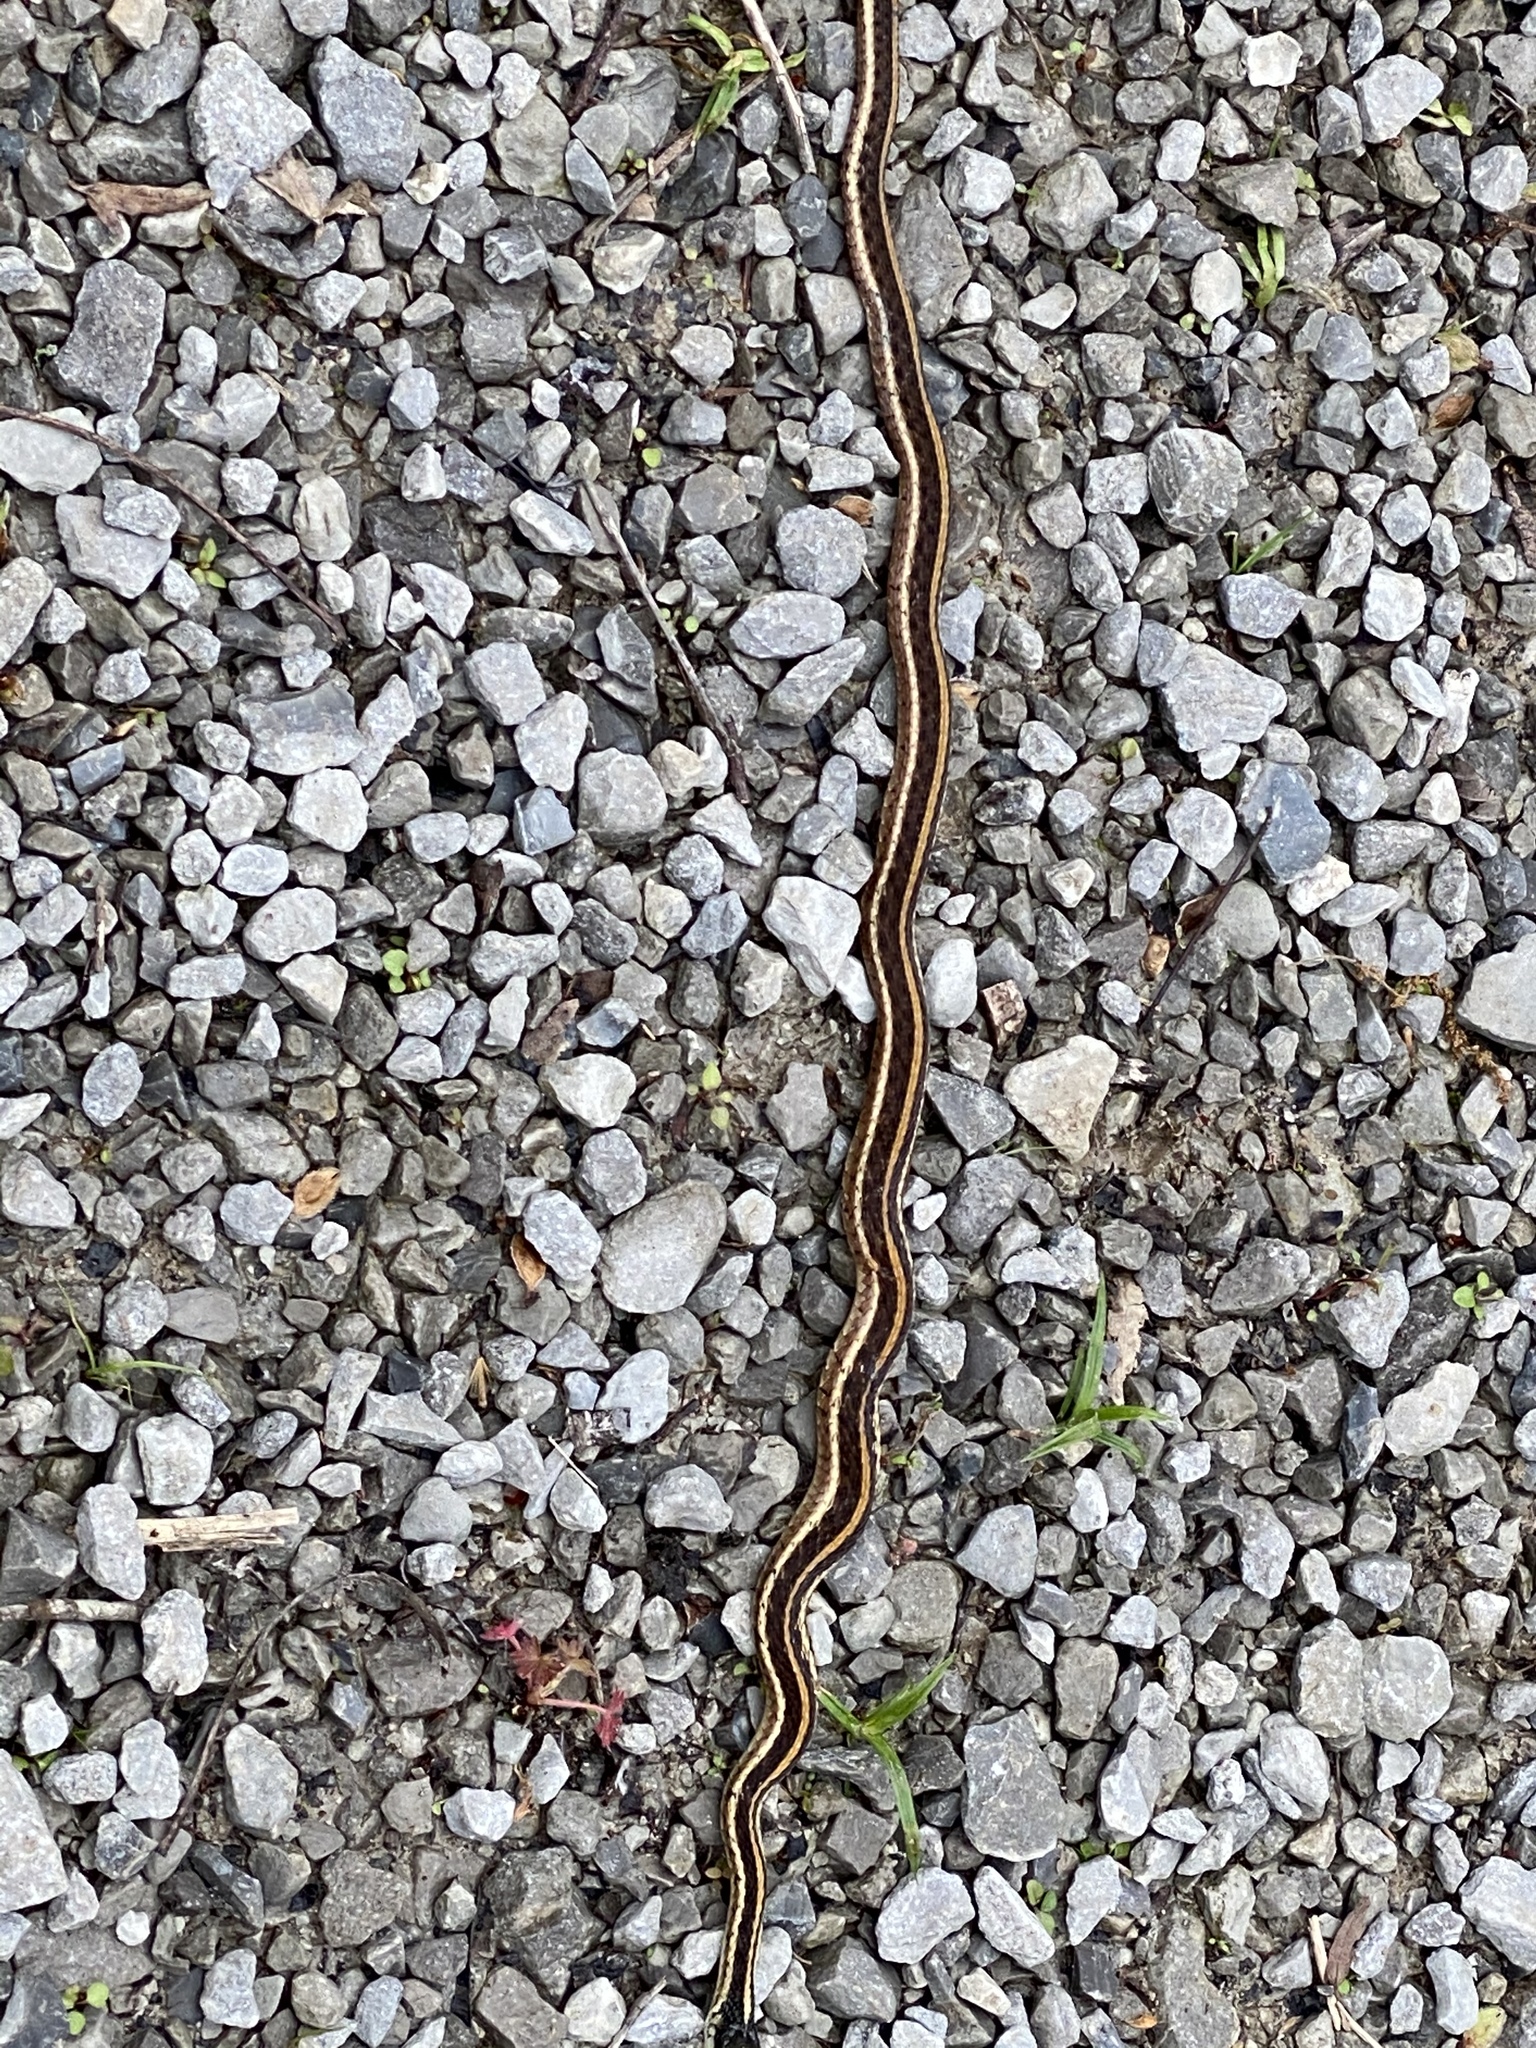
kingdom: Animalia
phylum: Chordata
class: Squamata
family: Colubridae
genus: Thamnophis
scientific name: Thamnophis sirtalis
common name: Common garter snake
